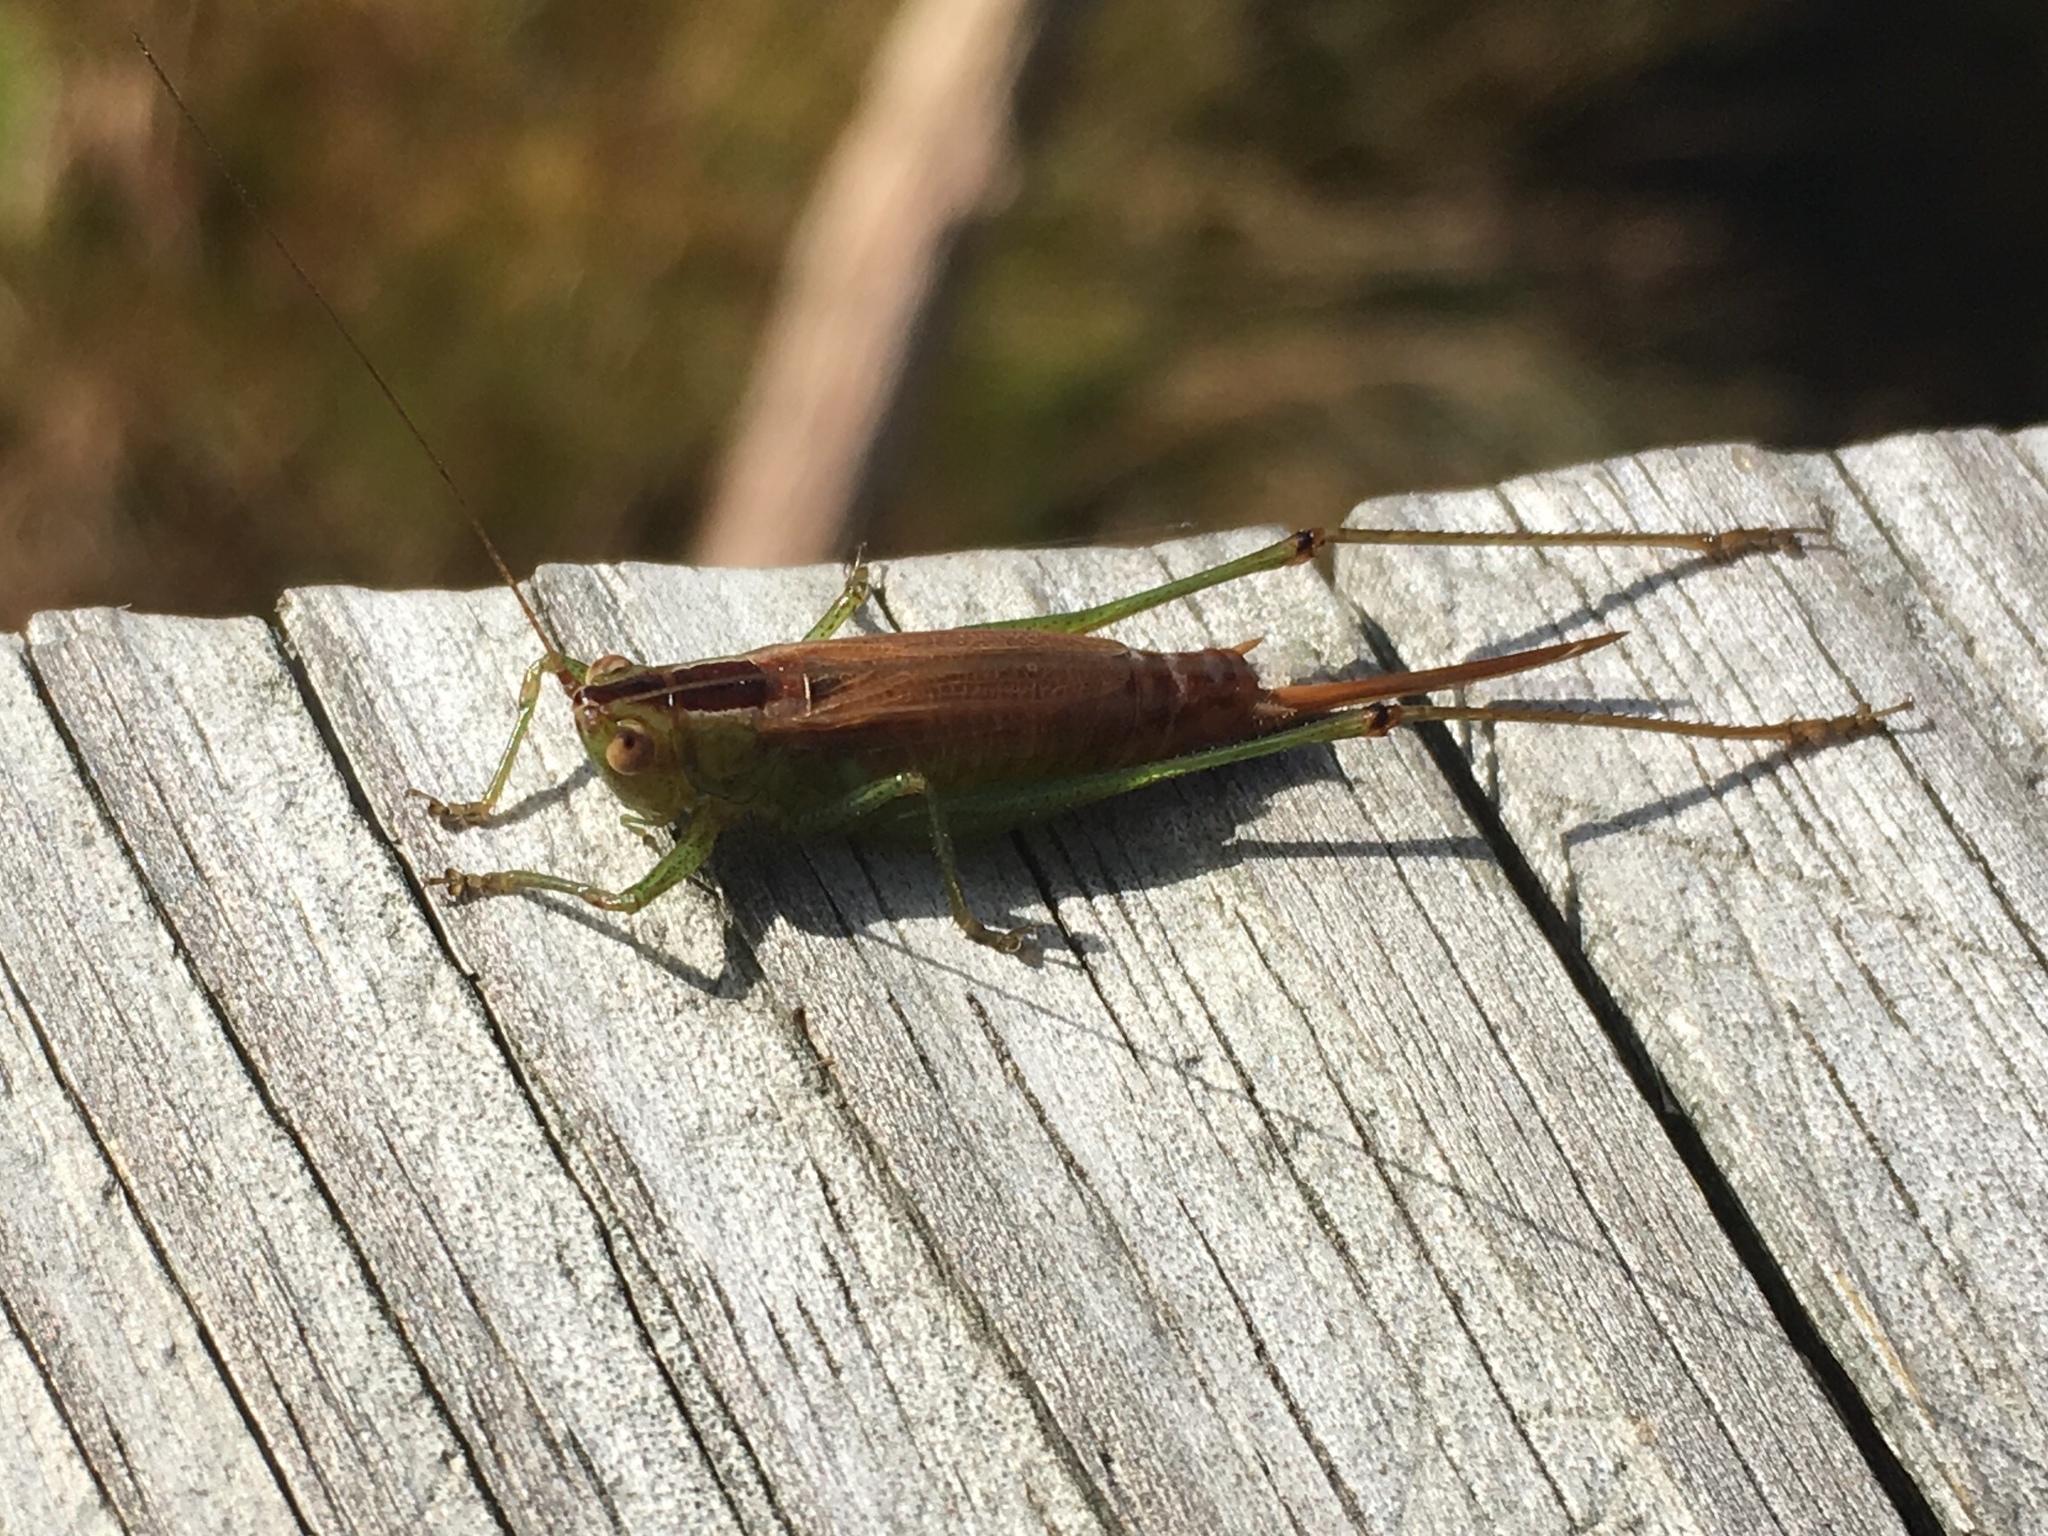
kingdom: Animalia
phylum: Arthropoda
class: Insecta
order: Orthoptera
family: Tettigoniidae
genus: Conocephalus
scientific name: Conocephalus brevipennis
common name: Short-winged meadow katydid
